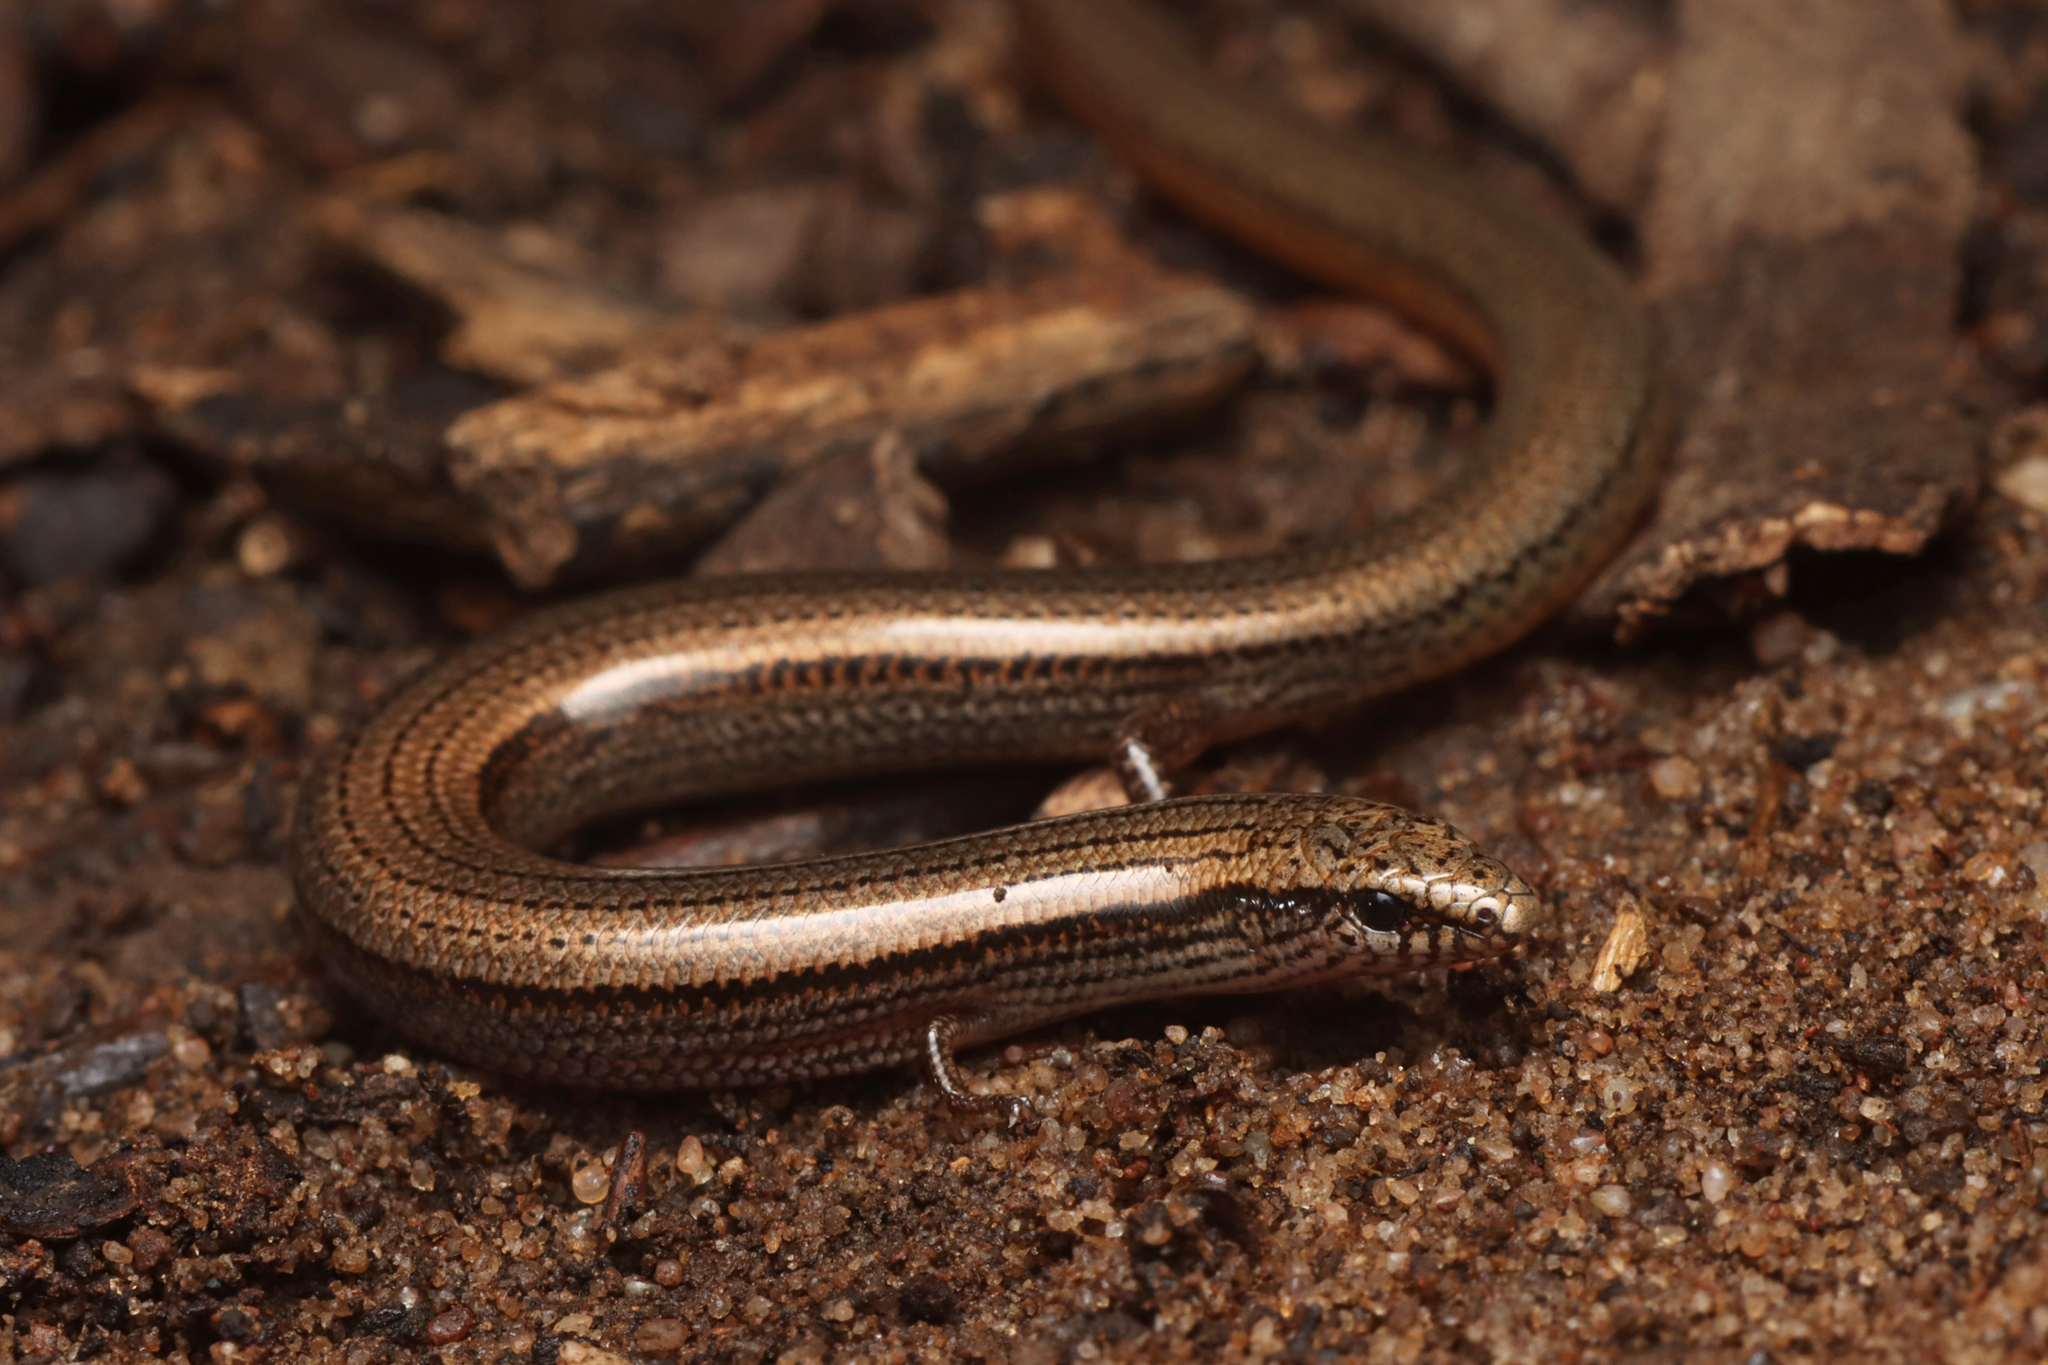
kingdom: Animalia
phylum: Chordata
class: Squamata
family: Scincidae
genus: Lerista
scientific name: Lerista timida
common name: Dwarf three-toed slider
